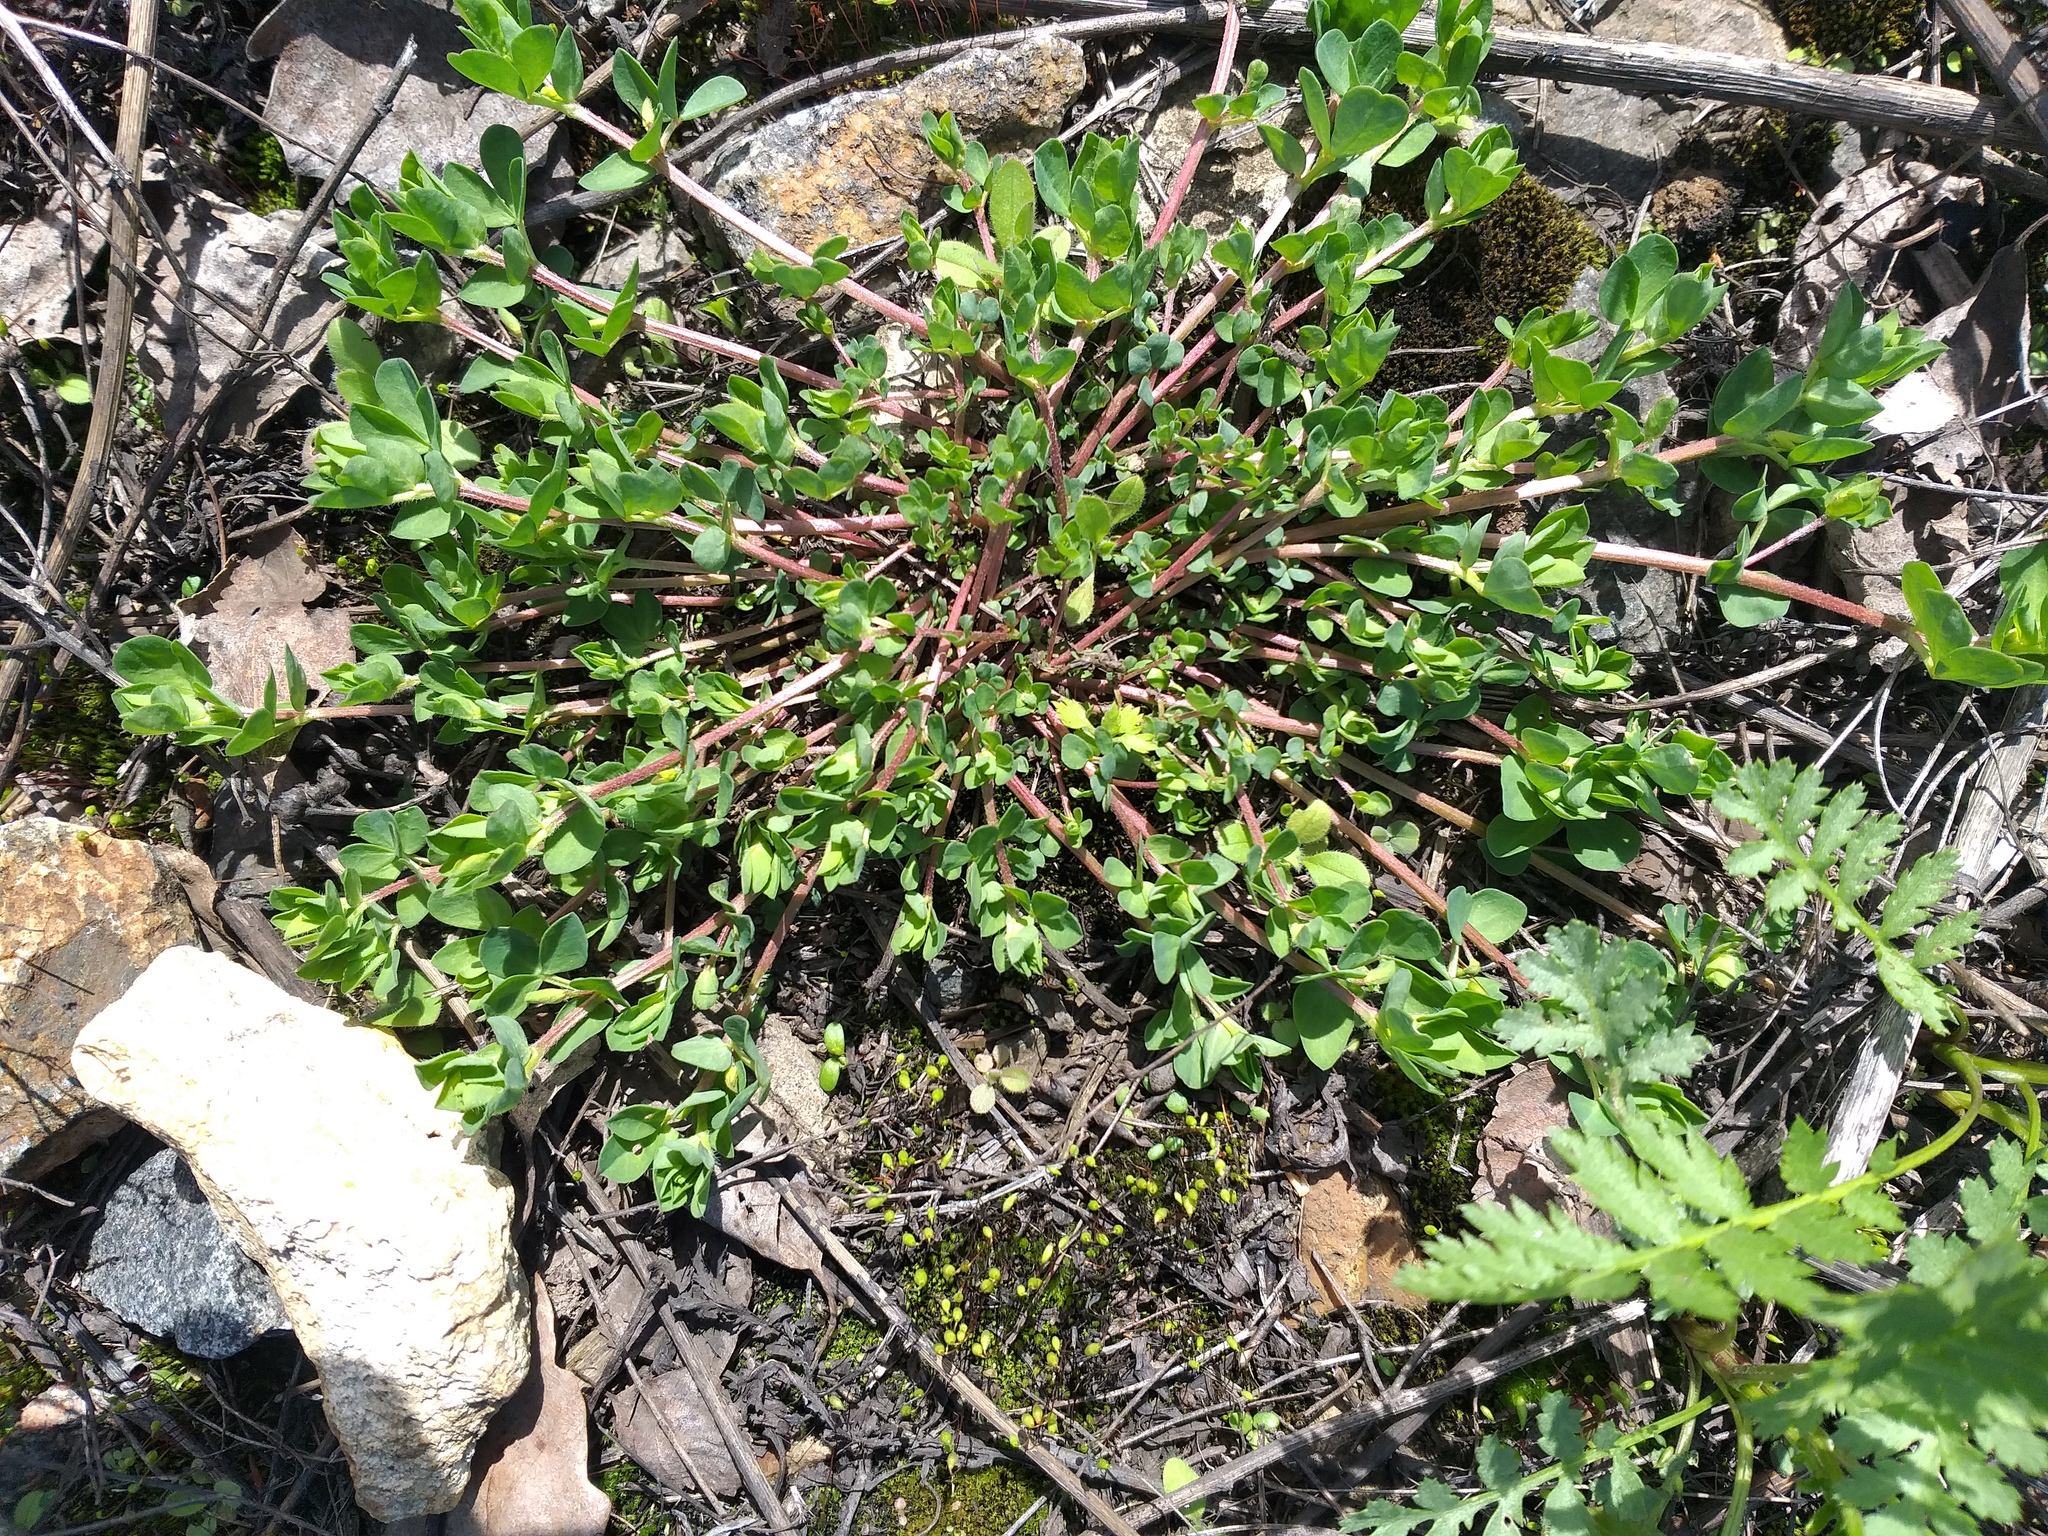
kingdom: Plantae
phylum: Tracheophyta
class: Magnoliopsida
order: Fabales
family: Fabaceae
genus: Lotus
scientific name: Lotus corniculatus
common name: Common bird's-foot-trefoil
